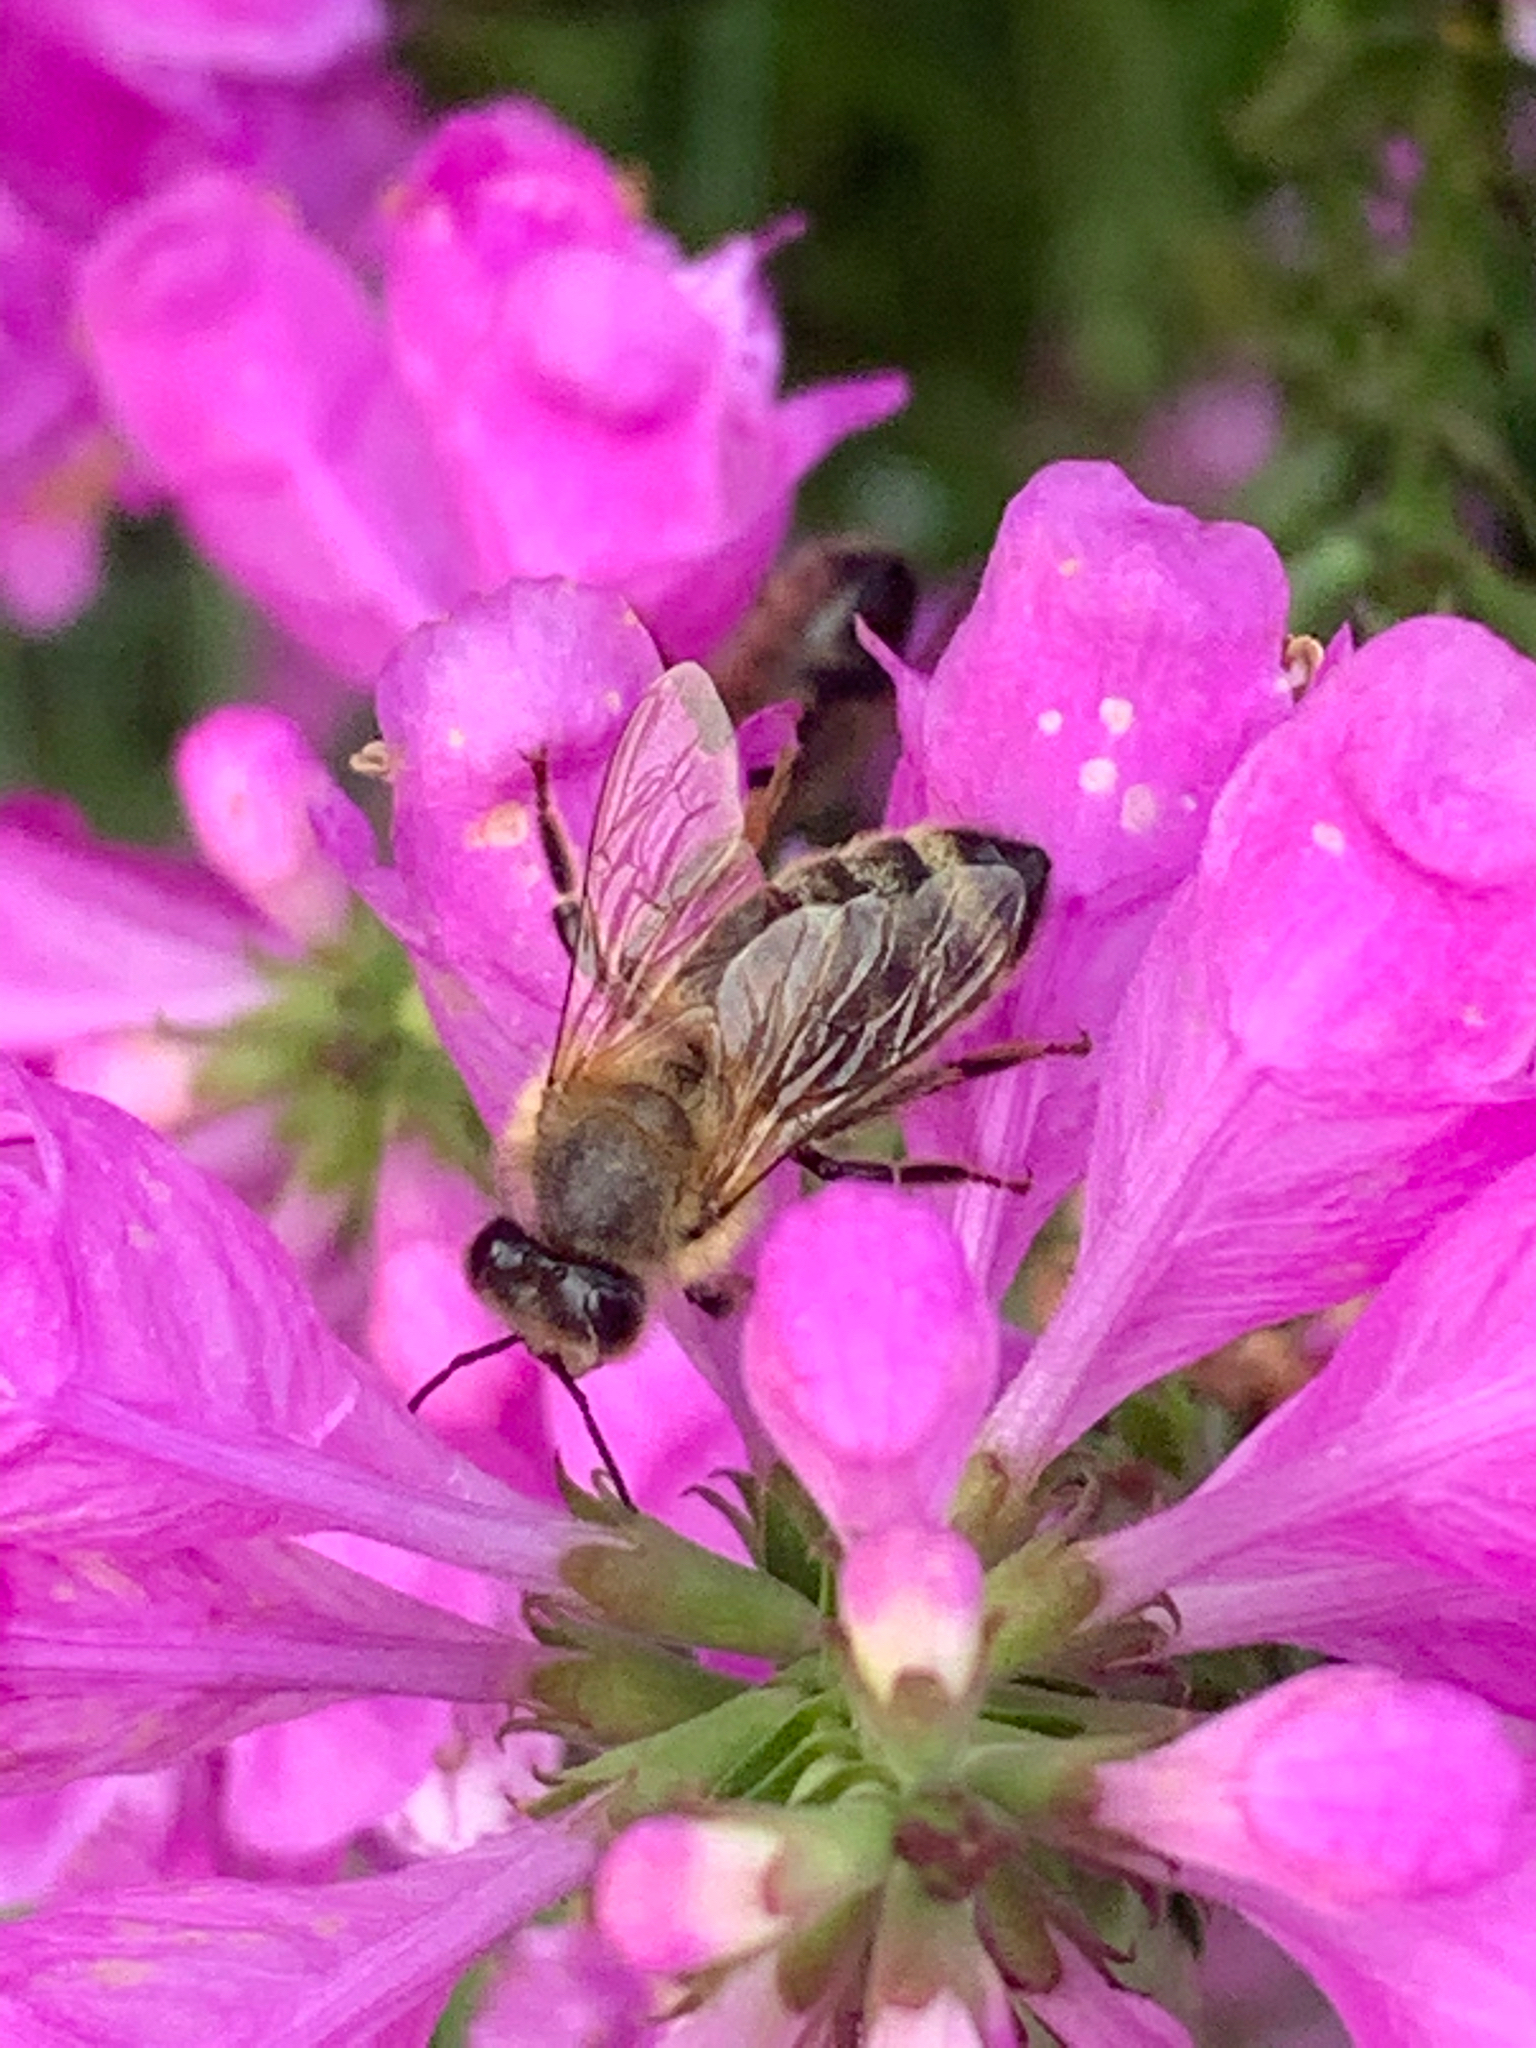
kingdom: Animalia
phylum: Arthropoda
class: Insecta
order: Hymenoptera
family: Apidae
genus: Apis
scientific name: Apis mellifera
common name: Honey bee
